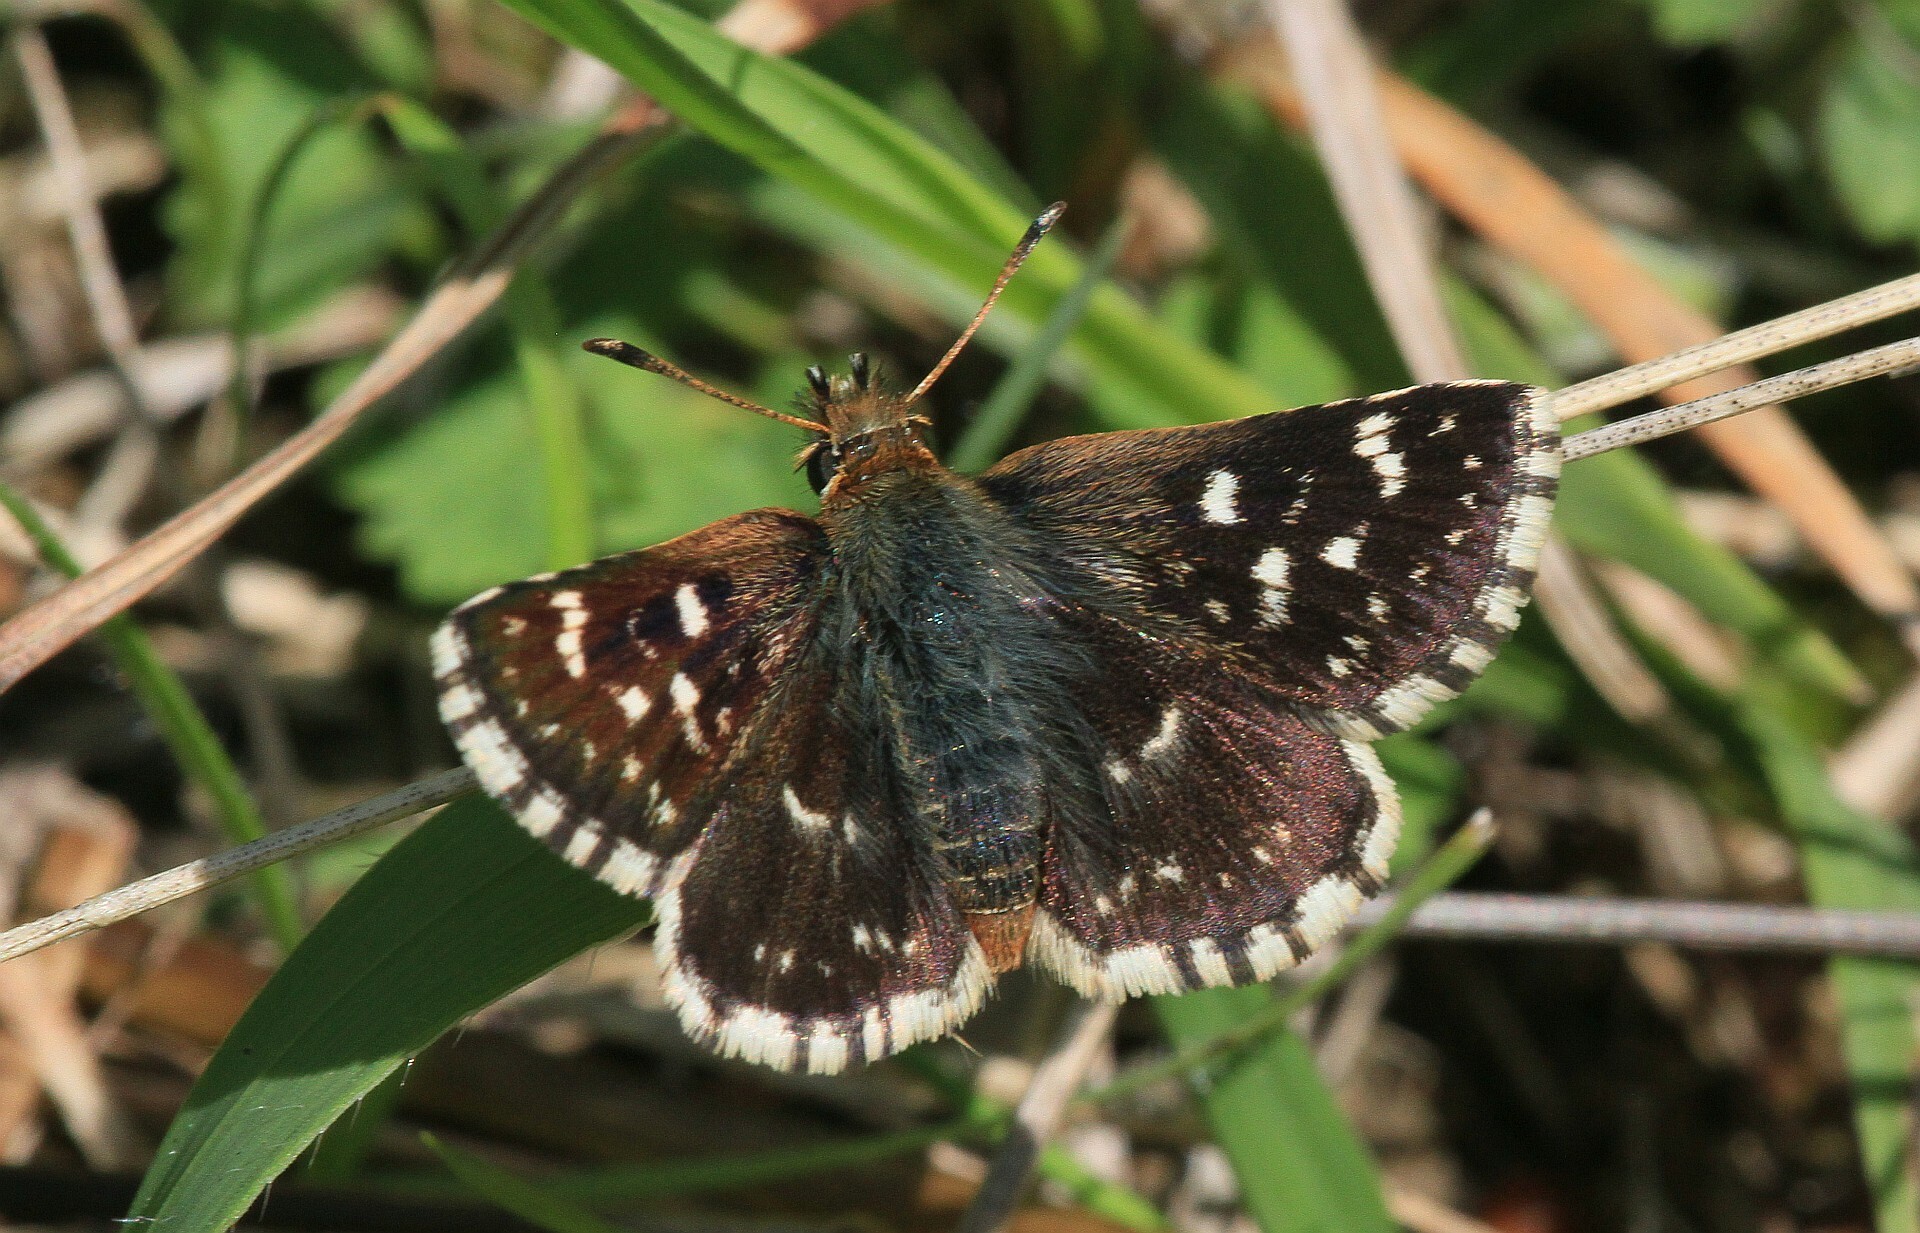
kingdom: Animalia
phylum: Arthropoda
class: Insecta
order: Lepidoptera
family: Hesperiidae
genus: Spialia
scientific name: Spialia sertorius
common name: Red underwing skipper
